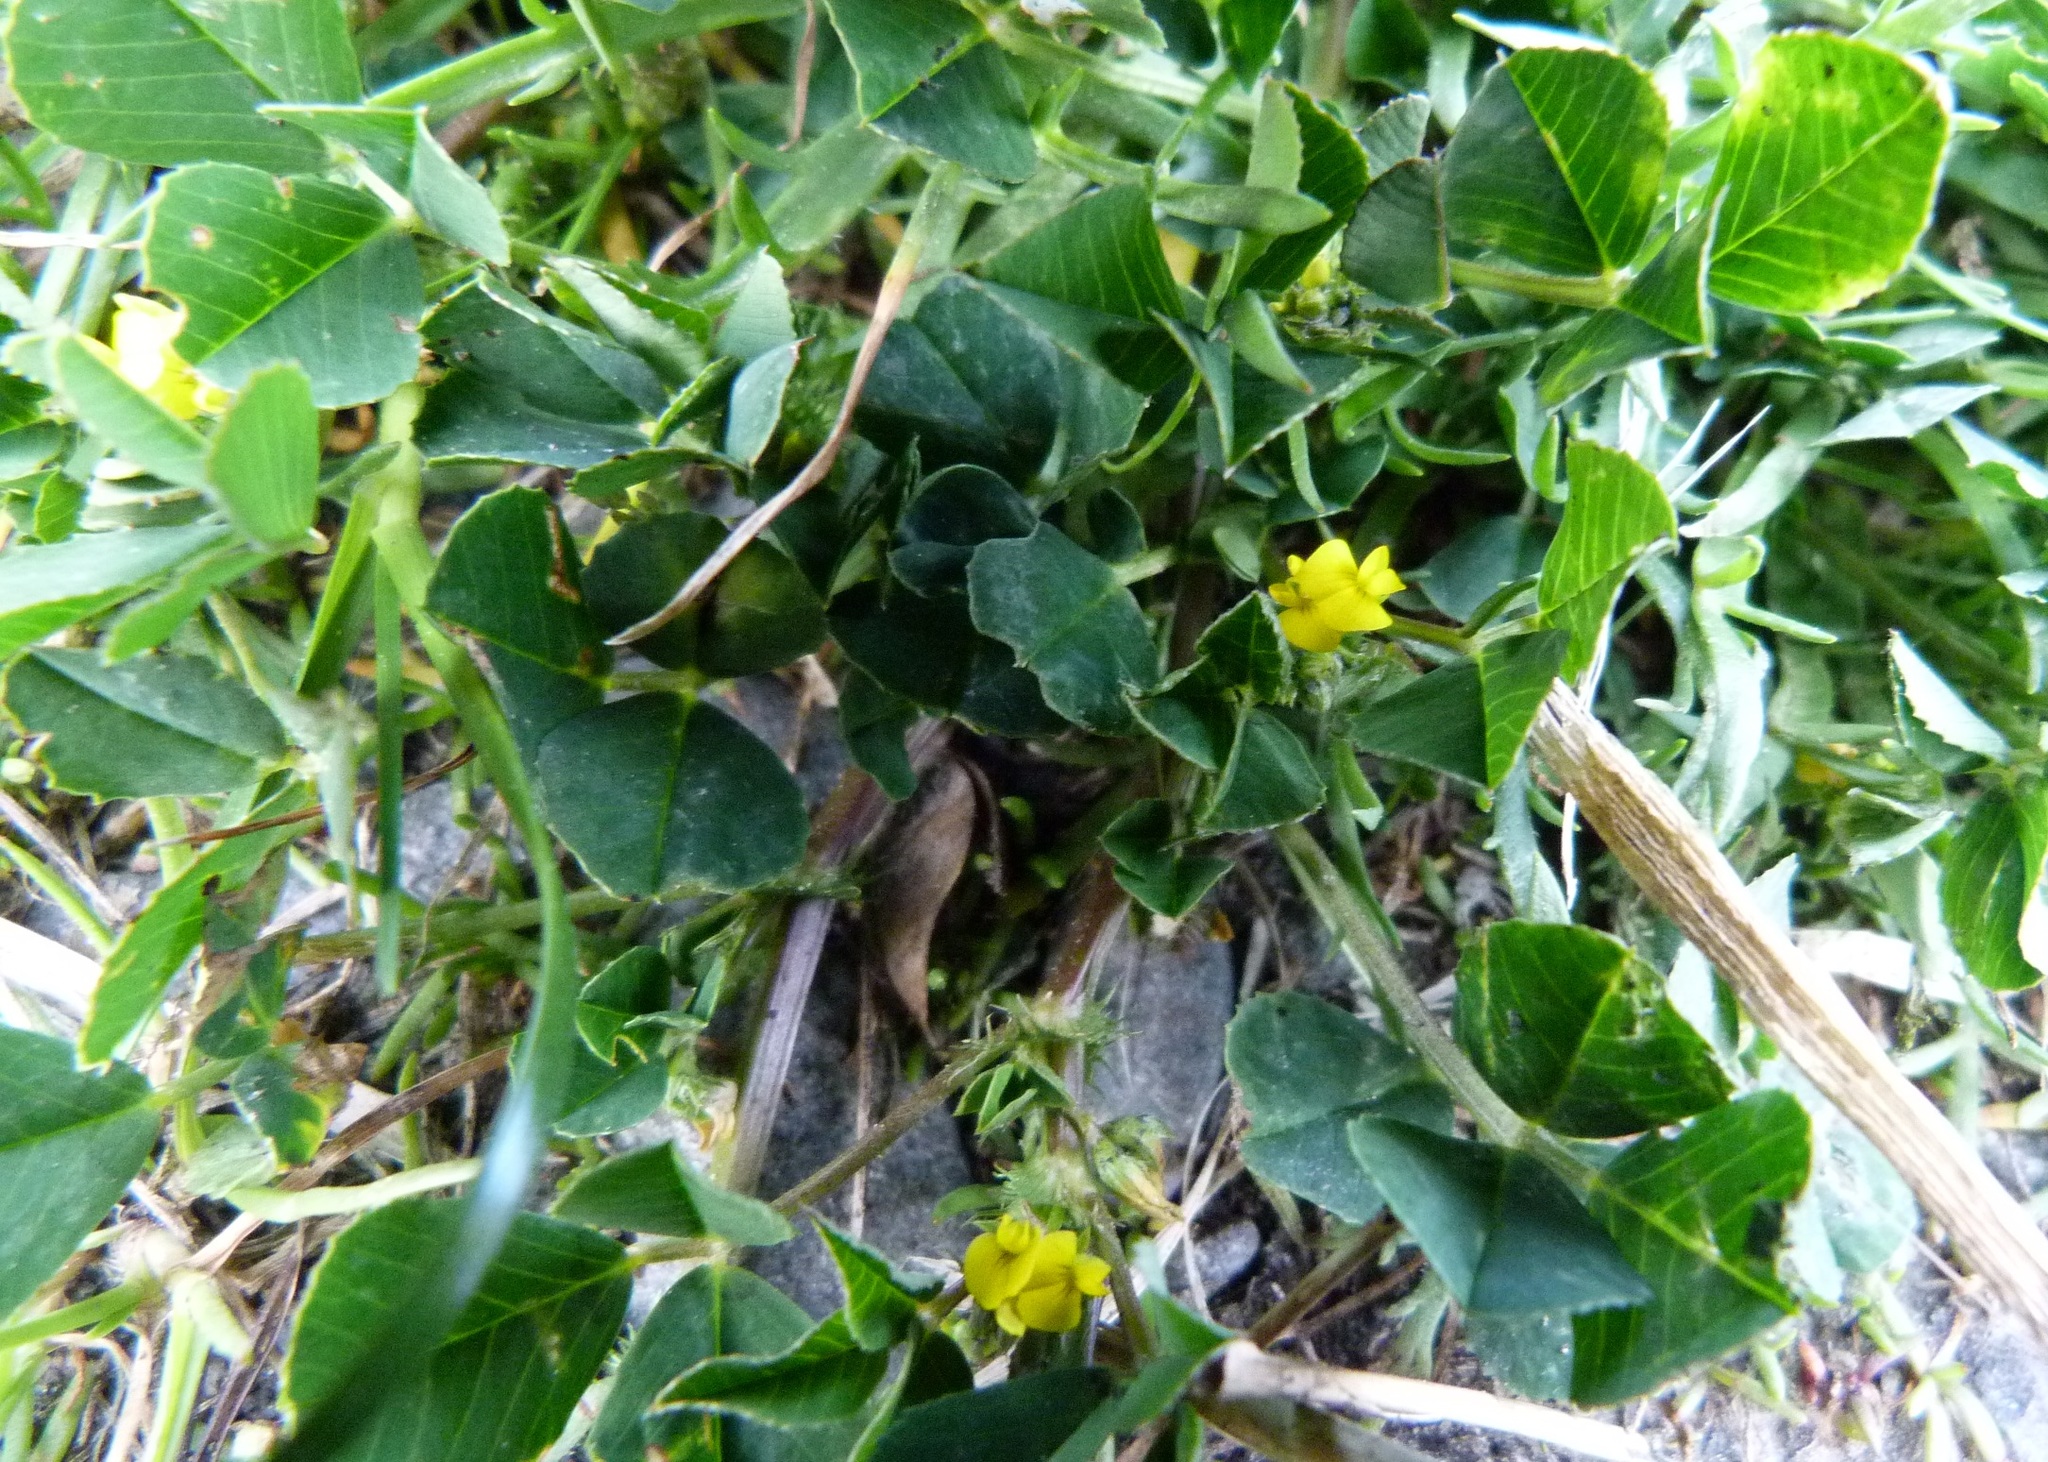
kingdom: Plantae
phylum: Tracheophyta
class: Magnoliopsida
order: Fabales
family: Fabaceae
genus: Medicago
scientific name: Medicago polymorpha
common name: Burclover
